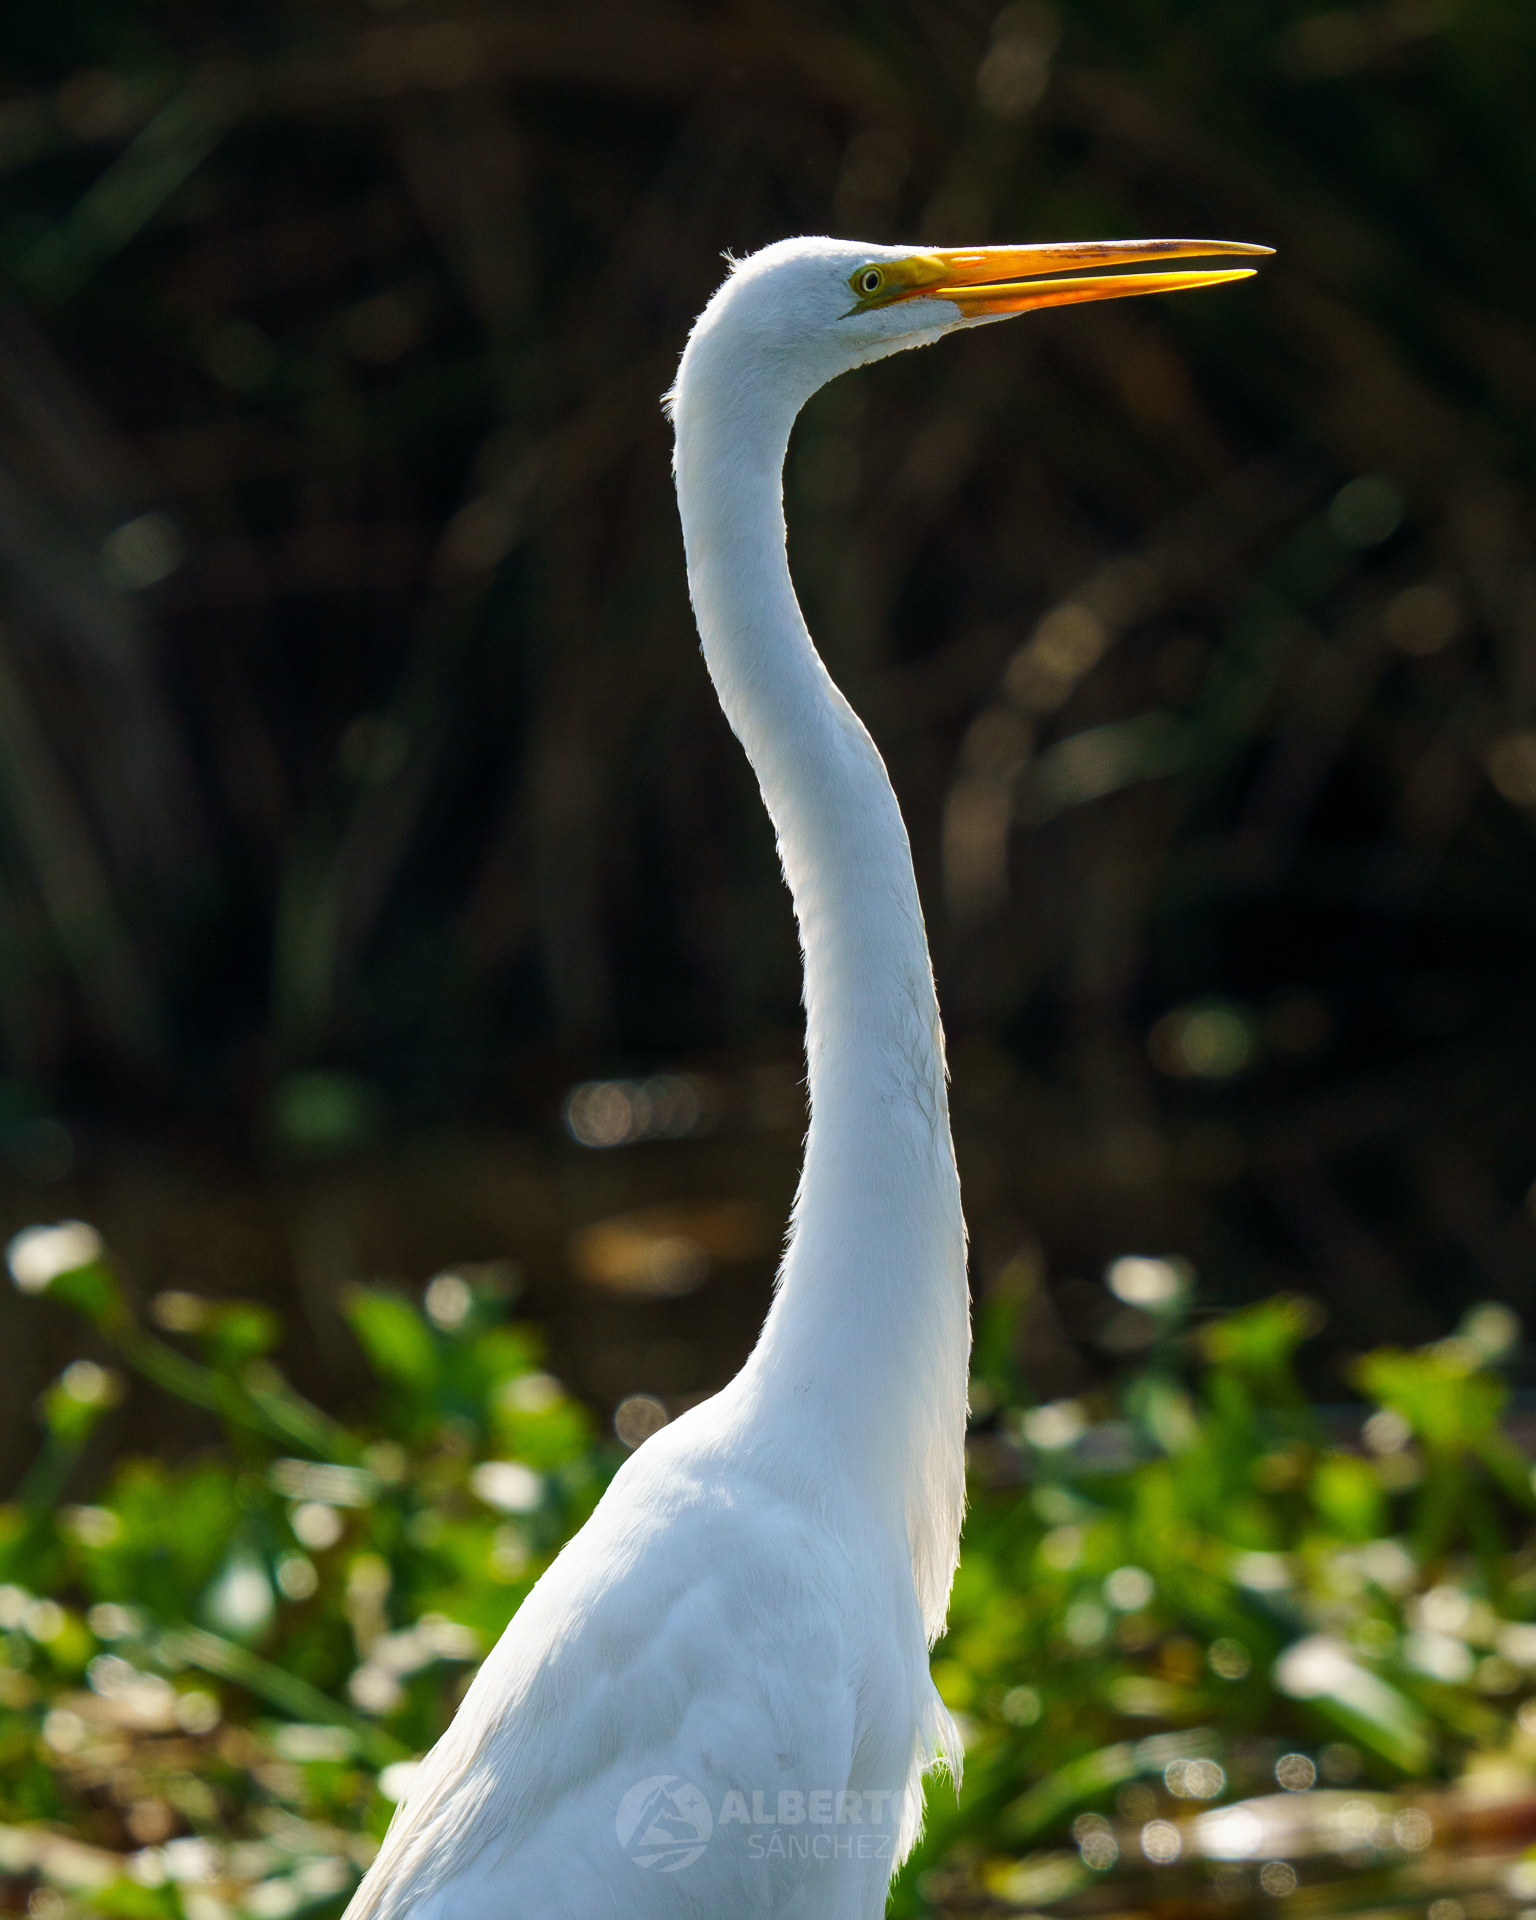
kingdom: Animalia
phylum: Chordata
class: Aves
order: Pelecaniformes
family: Ardeidae
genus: Ardea
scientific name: Ardea alba
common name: Great egret
